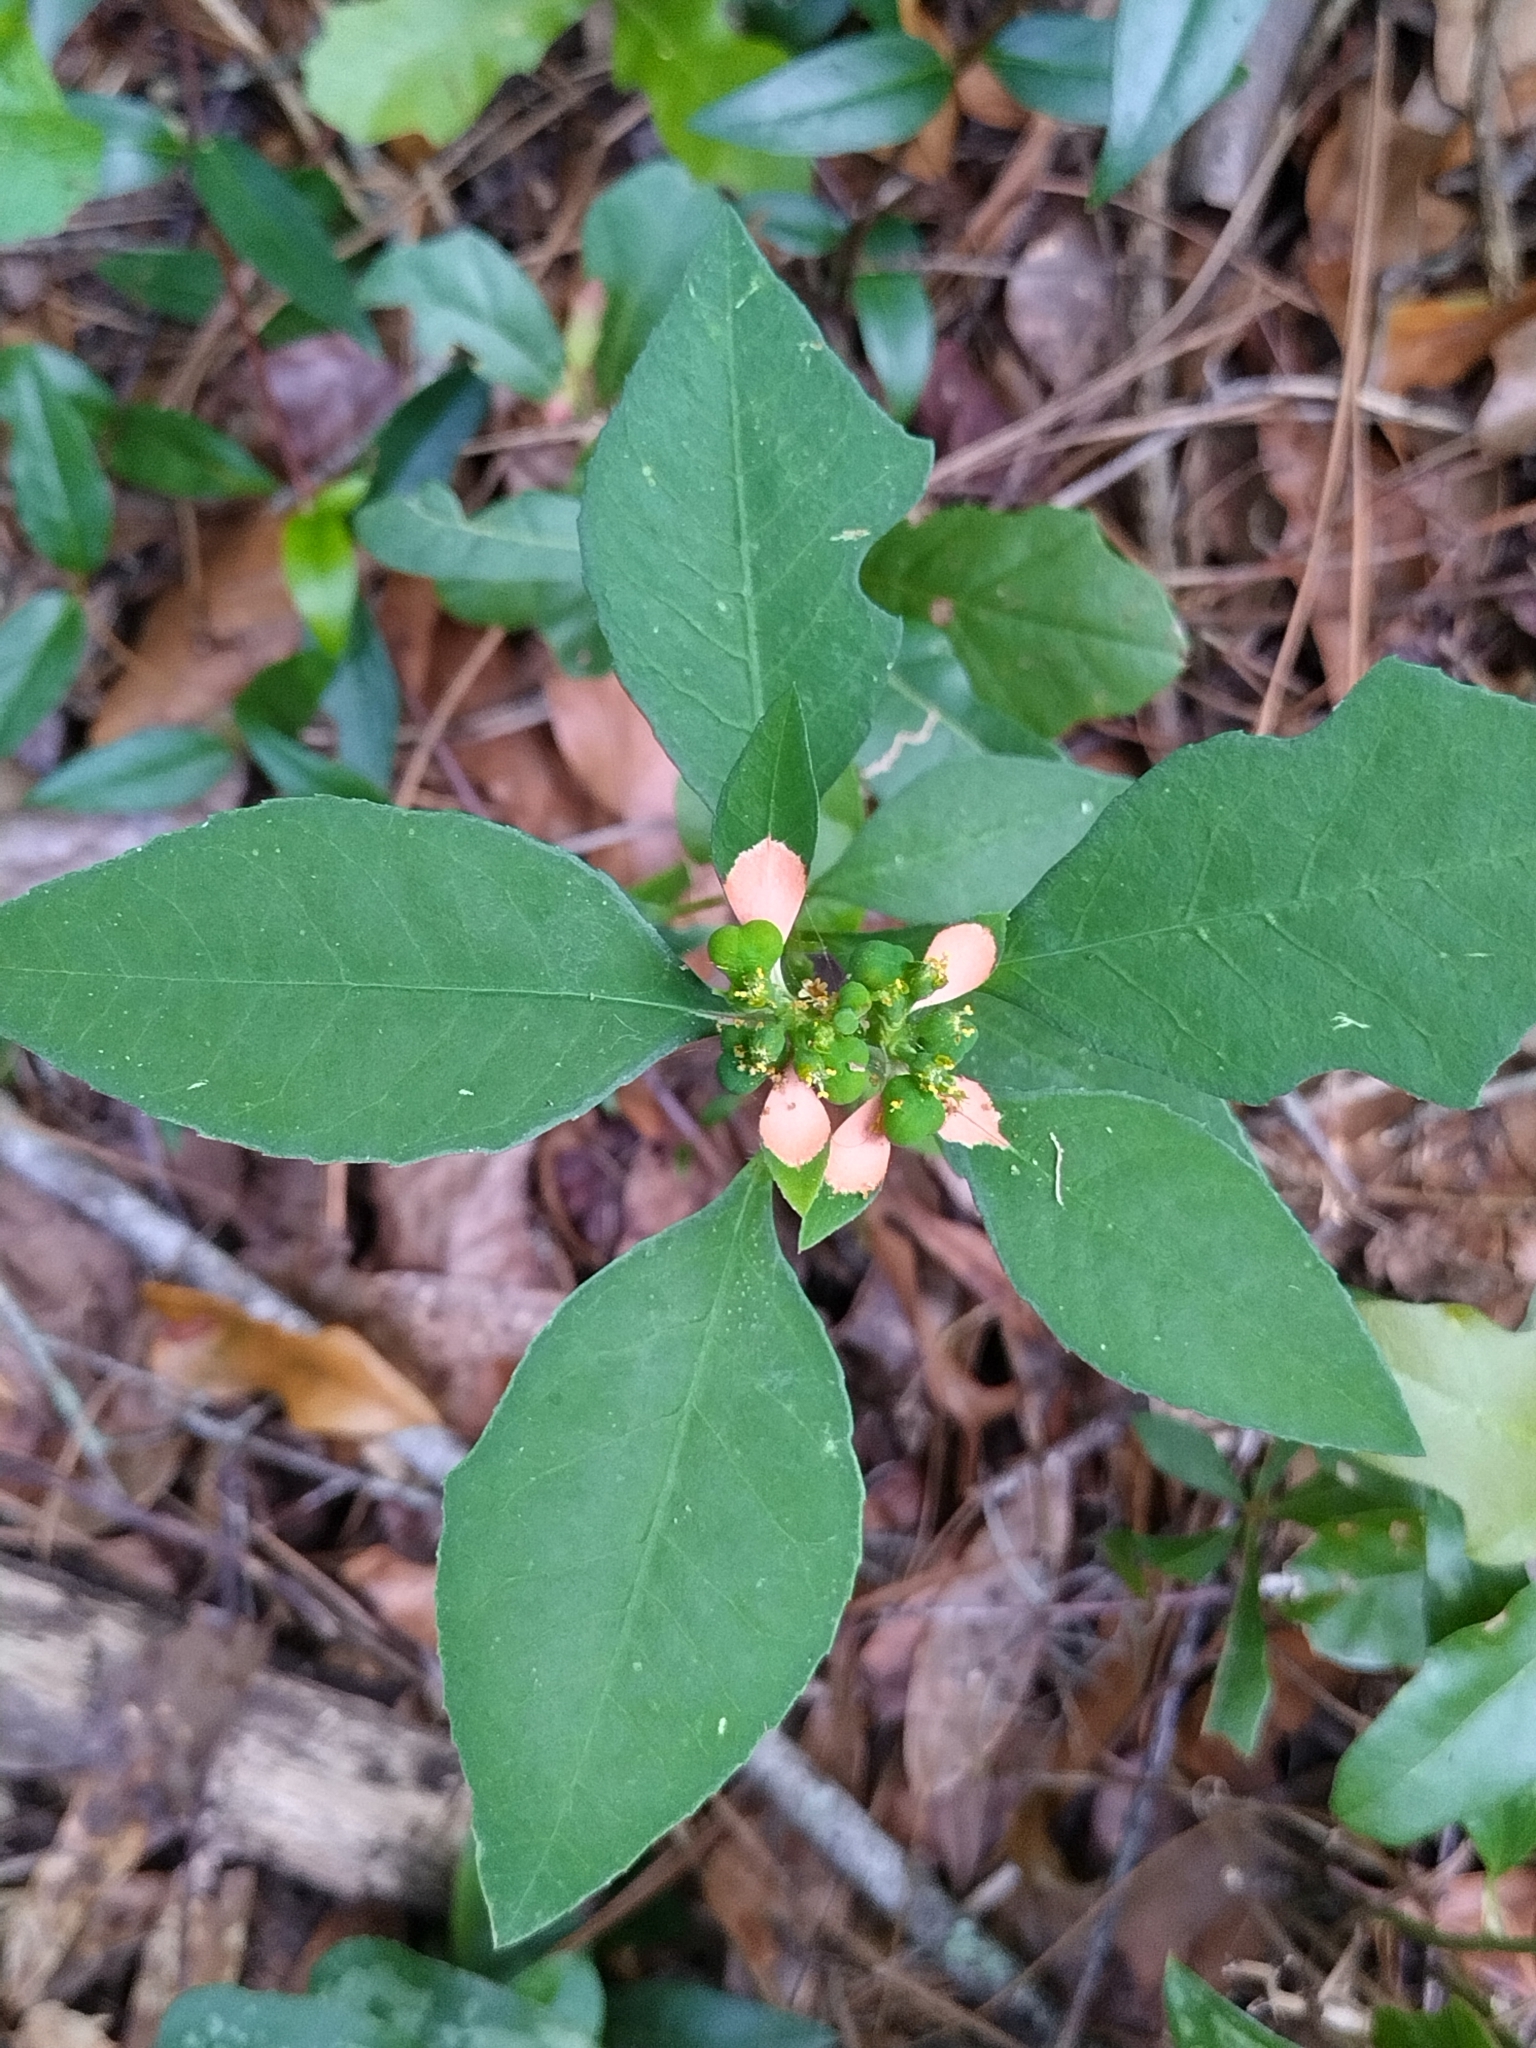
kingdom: Plantae
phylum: Tracheophyta
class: Magnoliopsida
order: Malpighiales
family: Euphorbiaceae
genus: Euphorbia
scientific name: Euphorbia heterophylla
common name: Mexican fireplant
